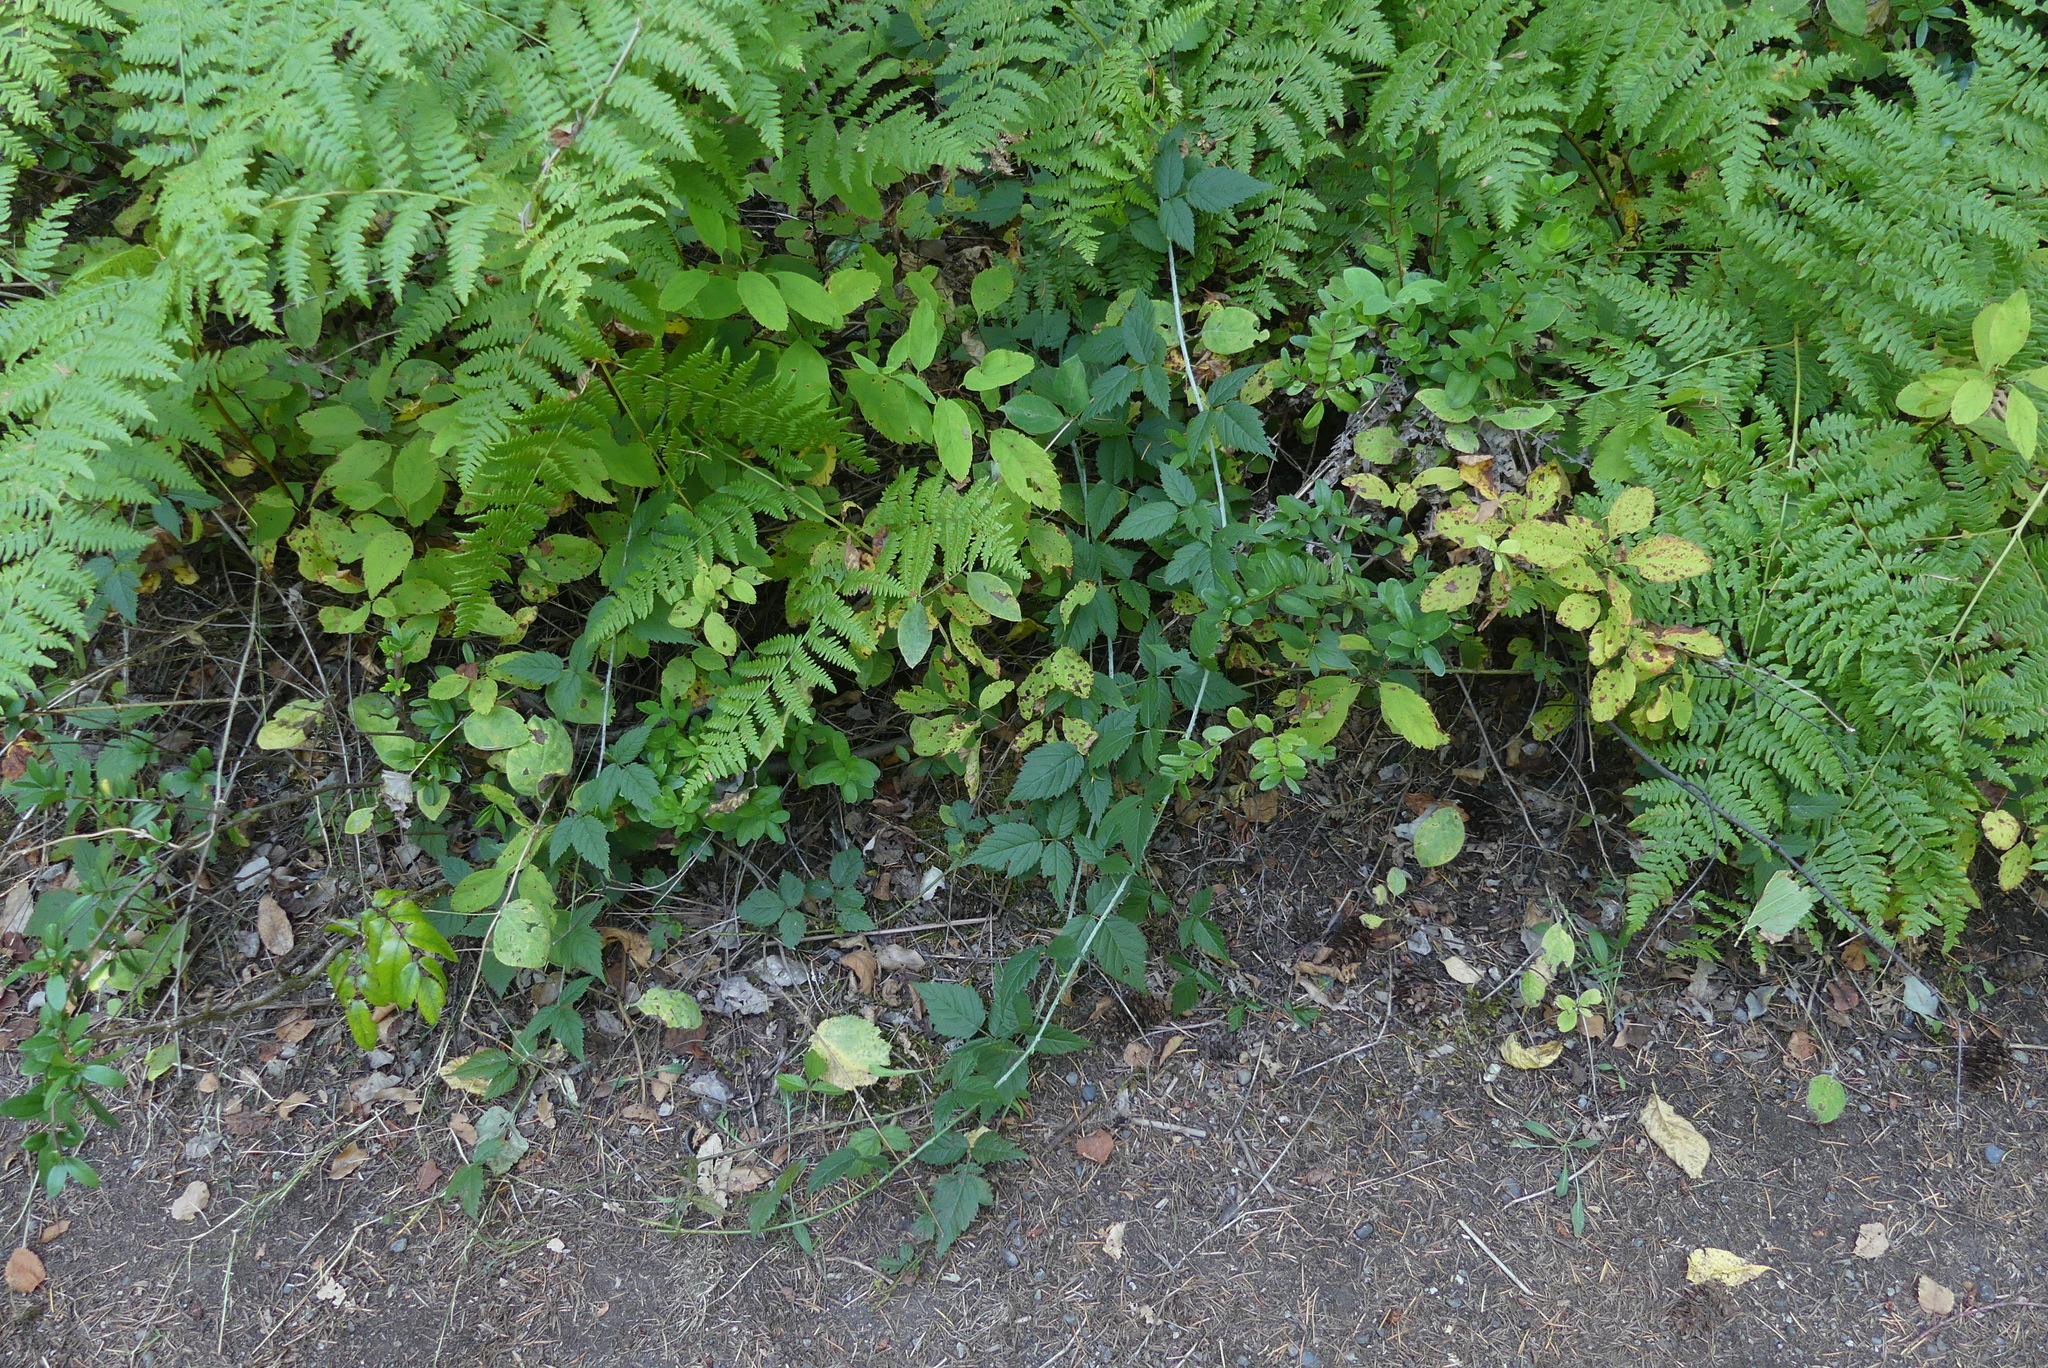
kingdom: Plantae
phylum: Tracheophyta
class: Magnoliopsida
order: Rosales
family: Rosaceae
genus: Rubus
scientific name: Rubus ursinus
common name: Pacific blackberry
